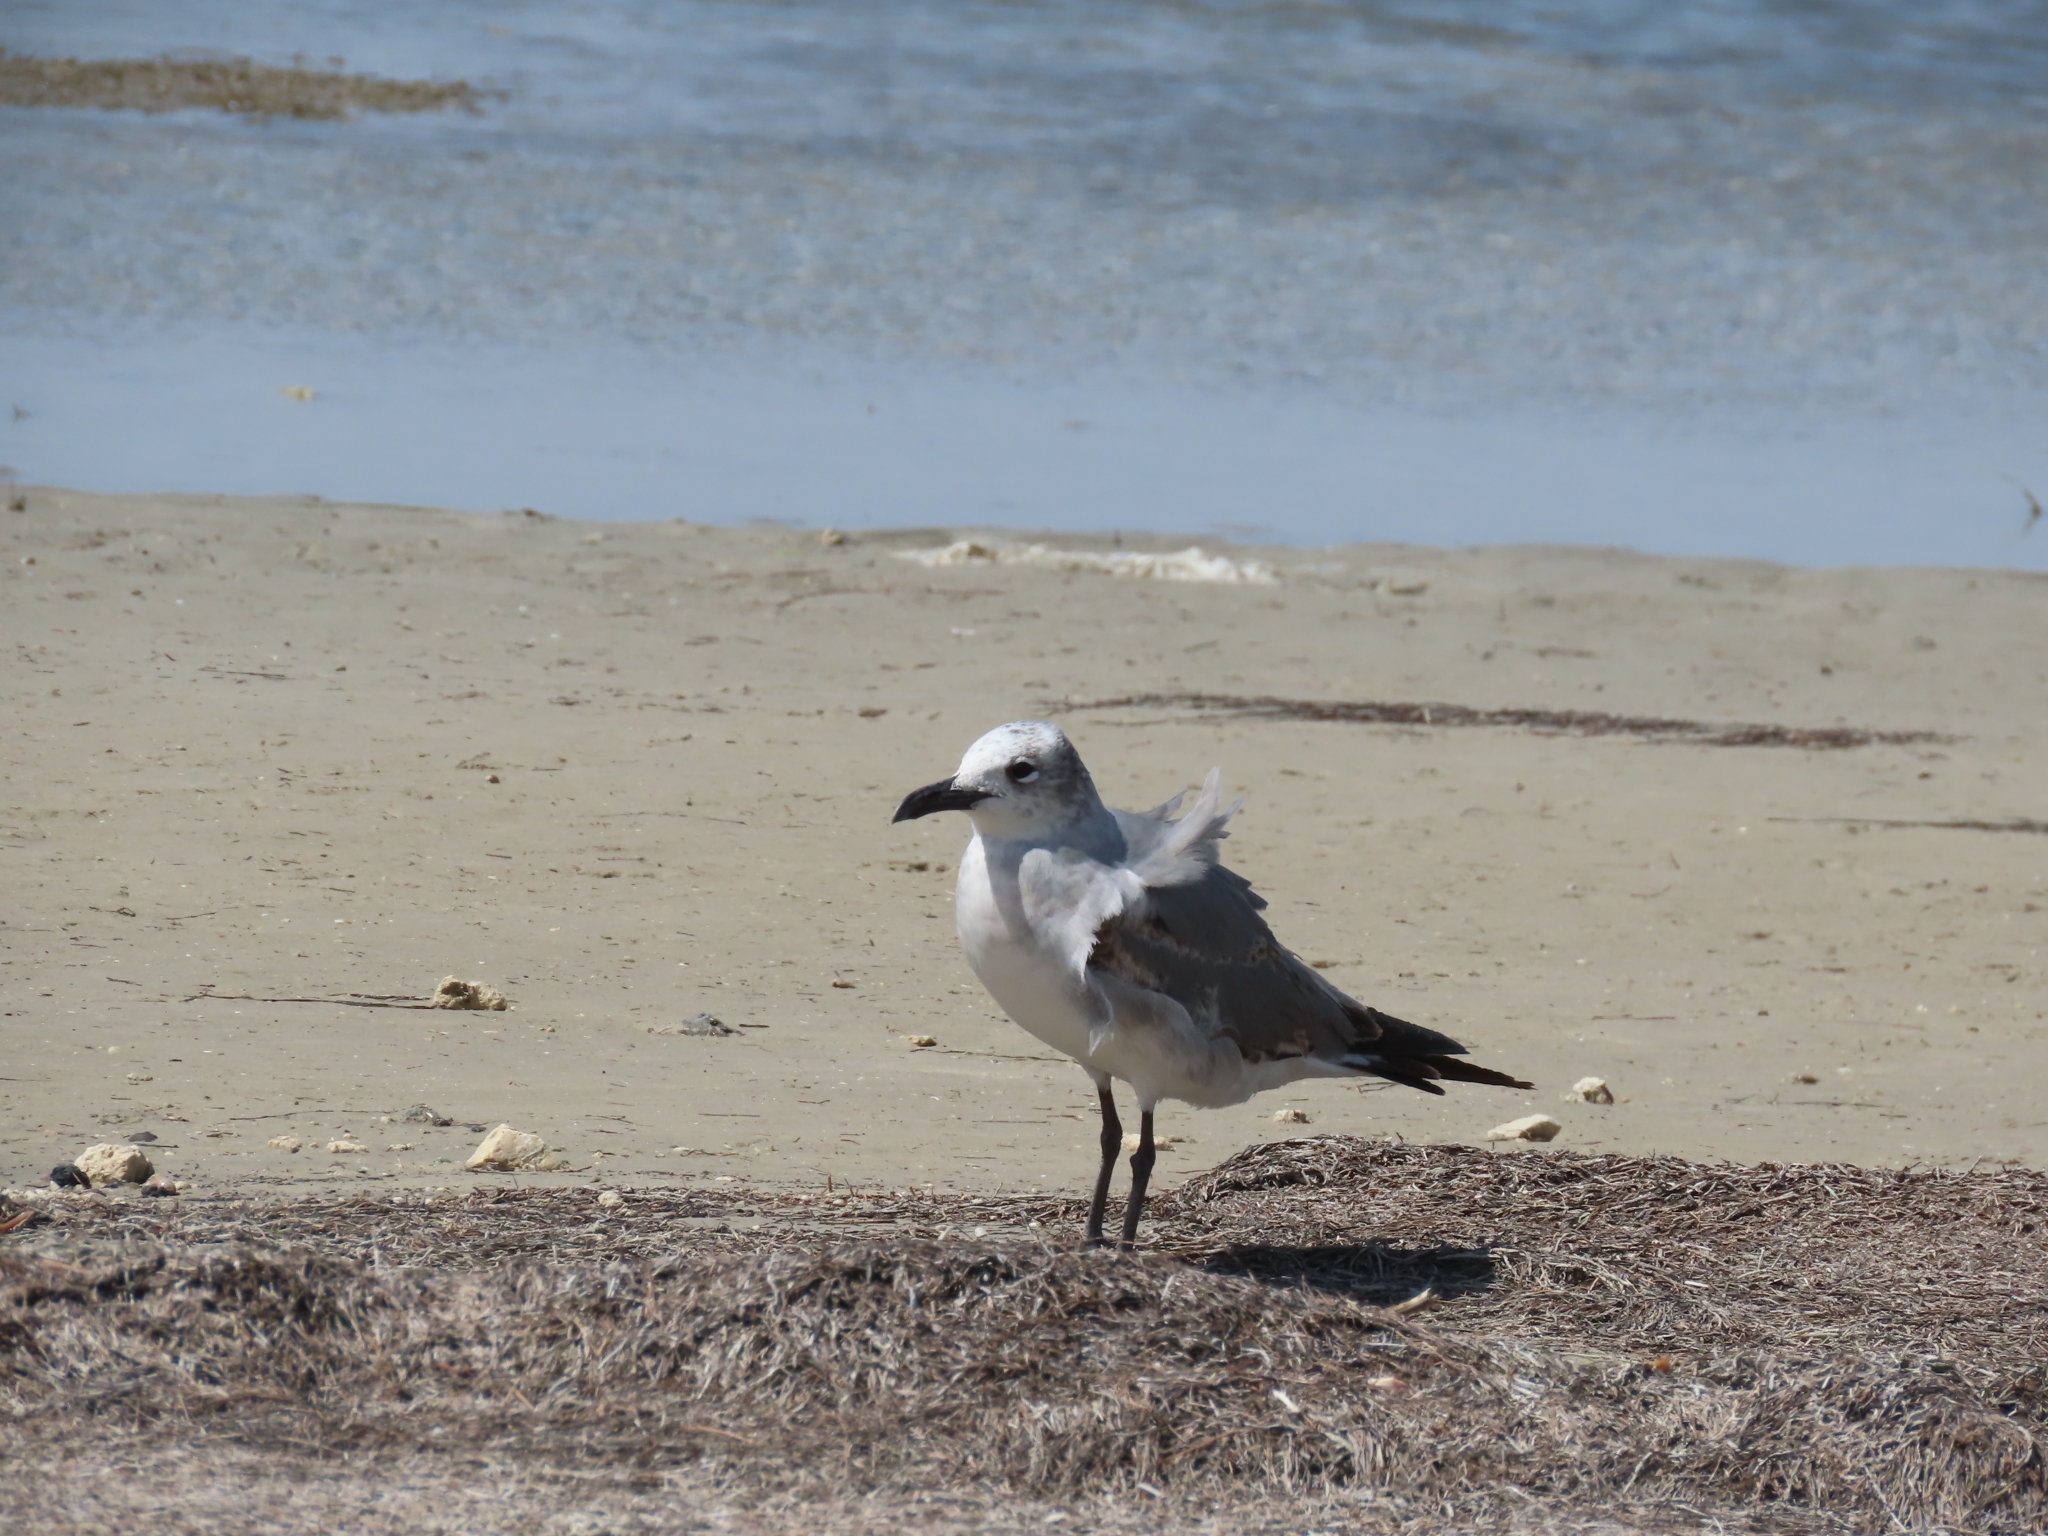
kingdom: Animalia
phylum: Chordata
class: Aves
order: Charadriiformes
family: Laridae
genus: Leucophaeus
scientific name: Leucophaeus atricilla
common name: Laughing gull
